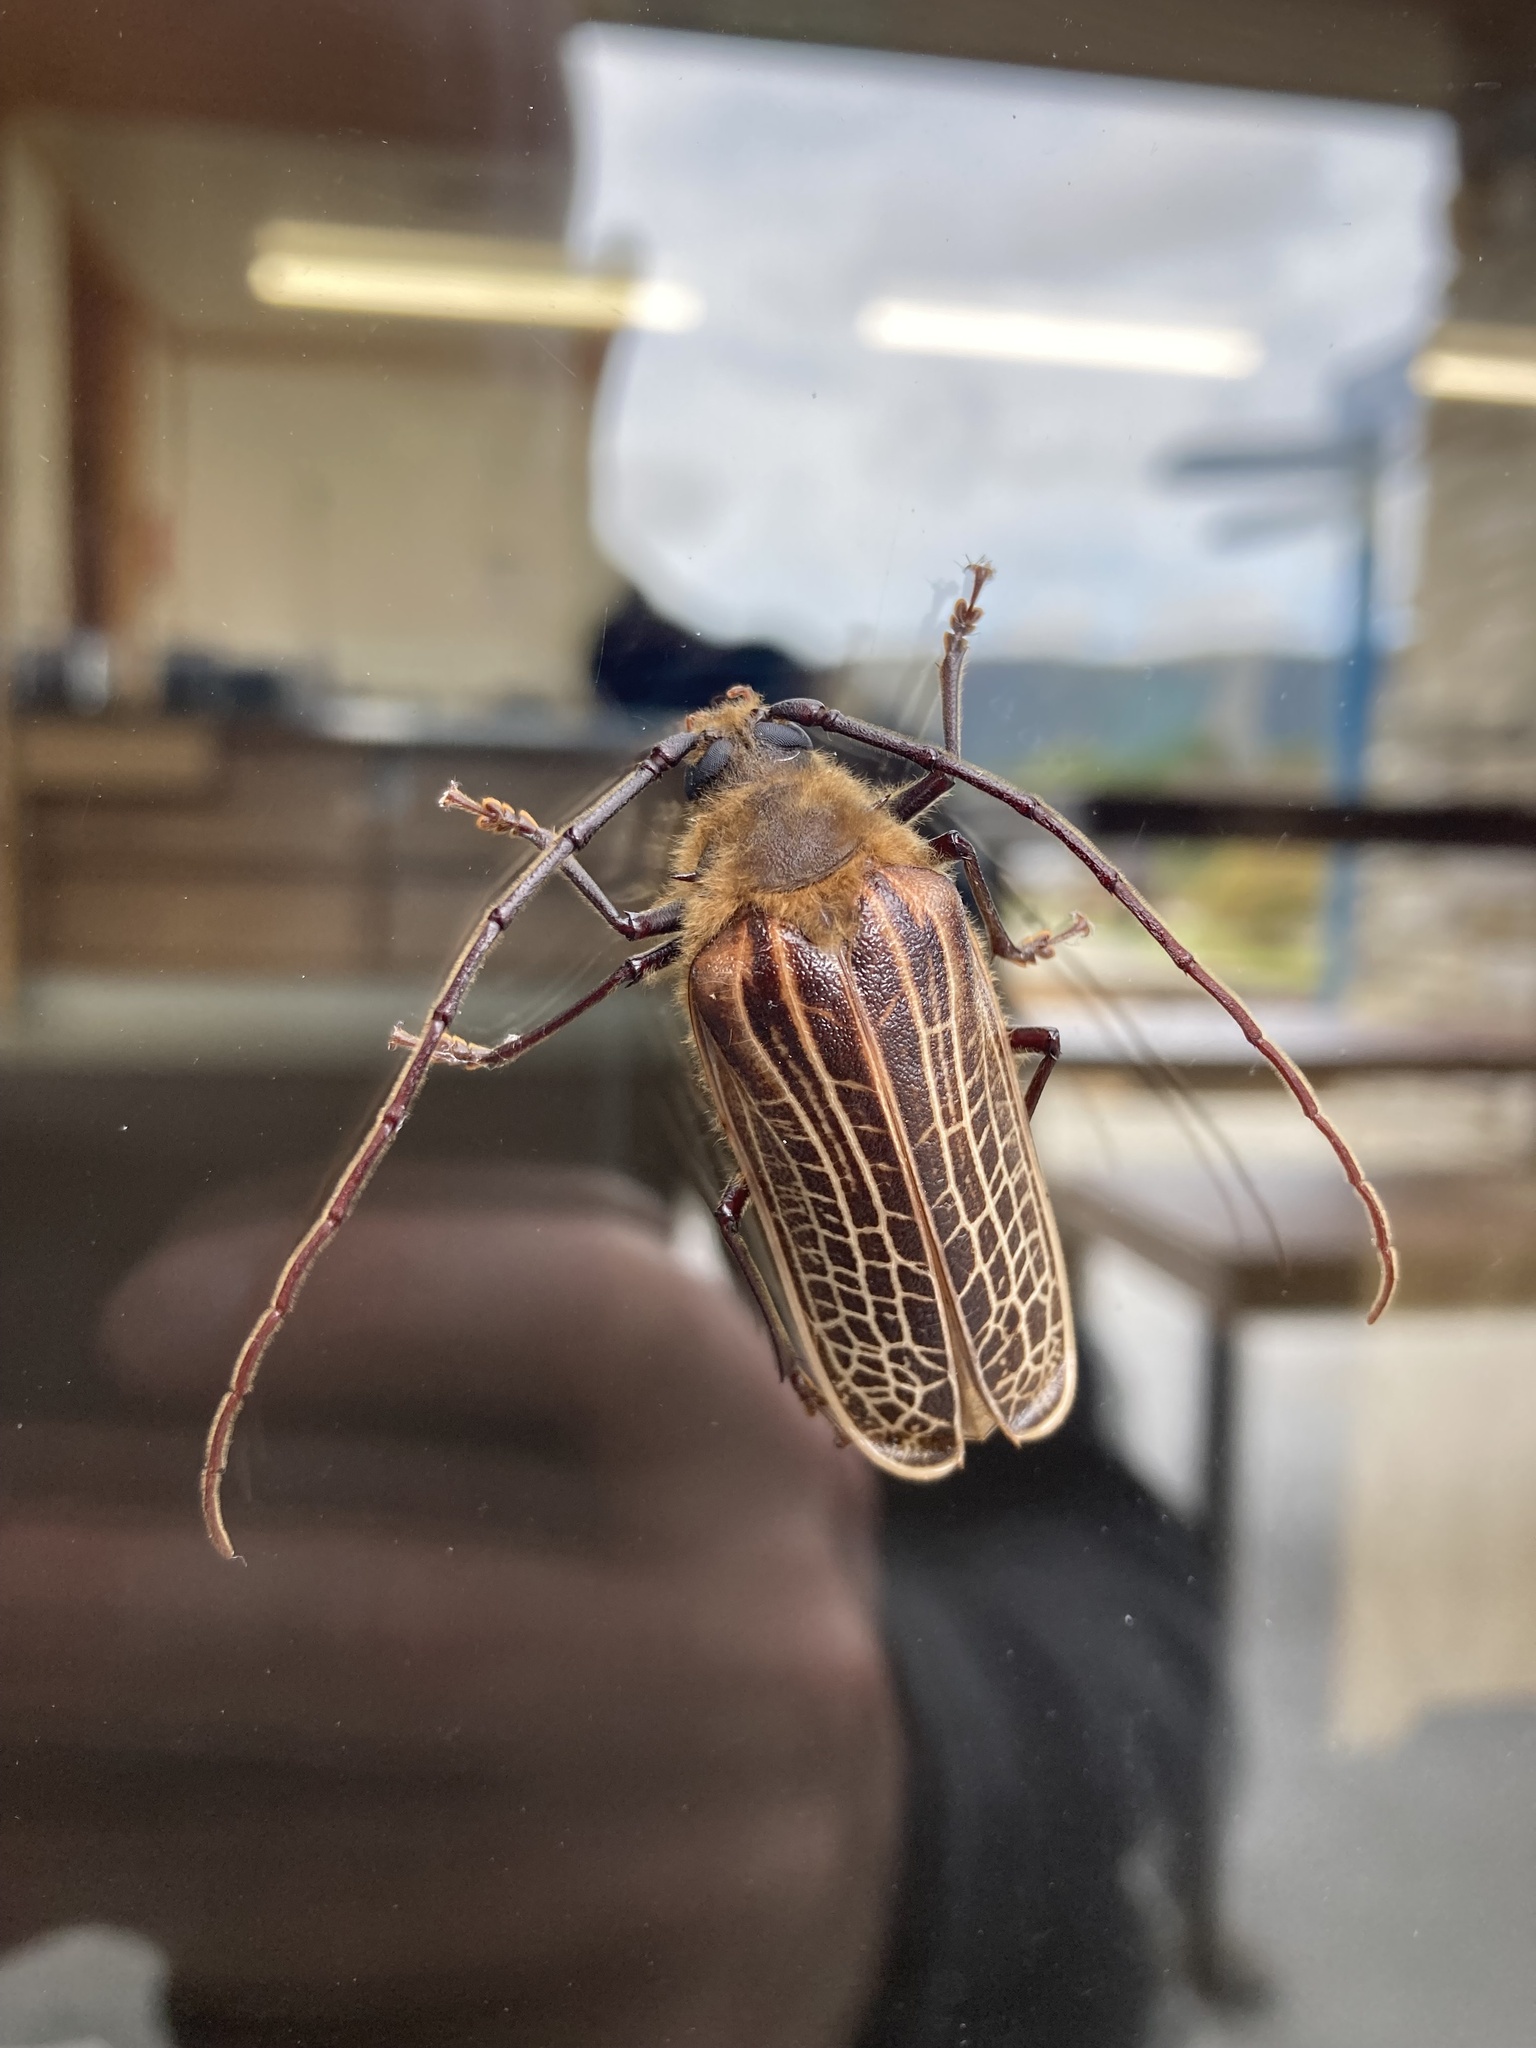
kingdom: Animalia
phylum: Arthropoda
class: Insecta
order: Coleoptera
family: Cerambycidae
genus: Prionoplus
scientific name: Prionoplus reticularis
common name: Huhu beetle
